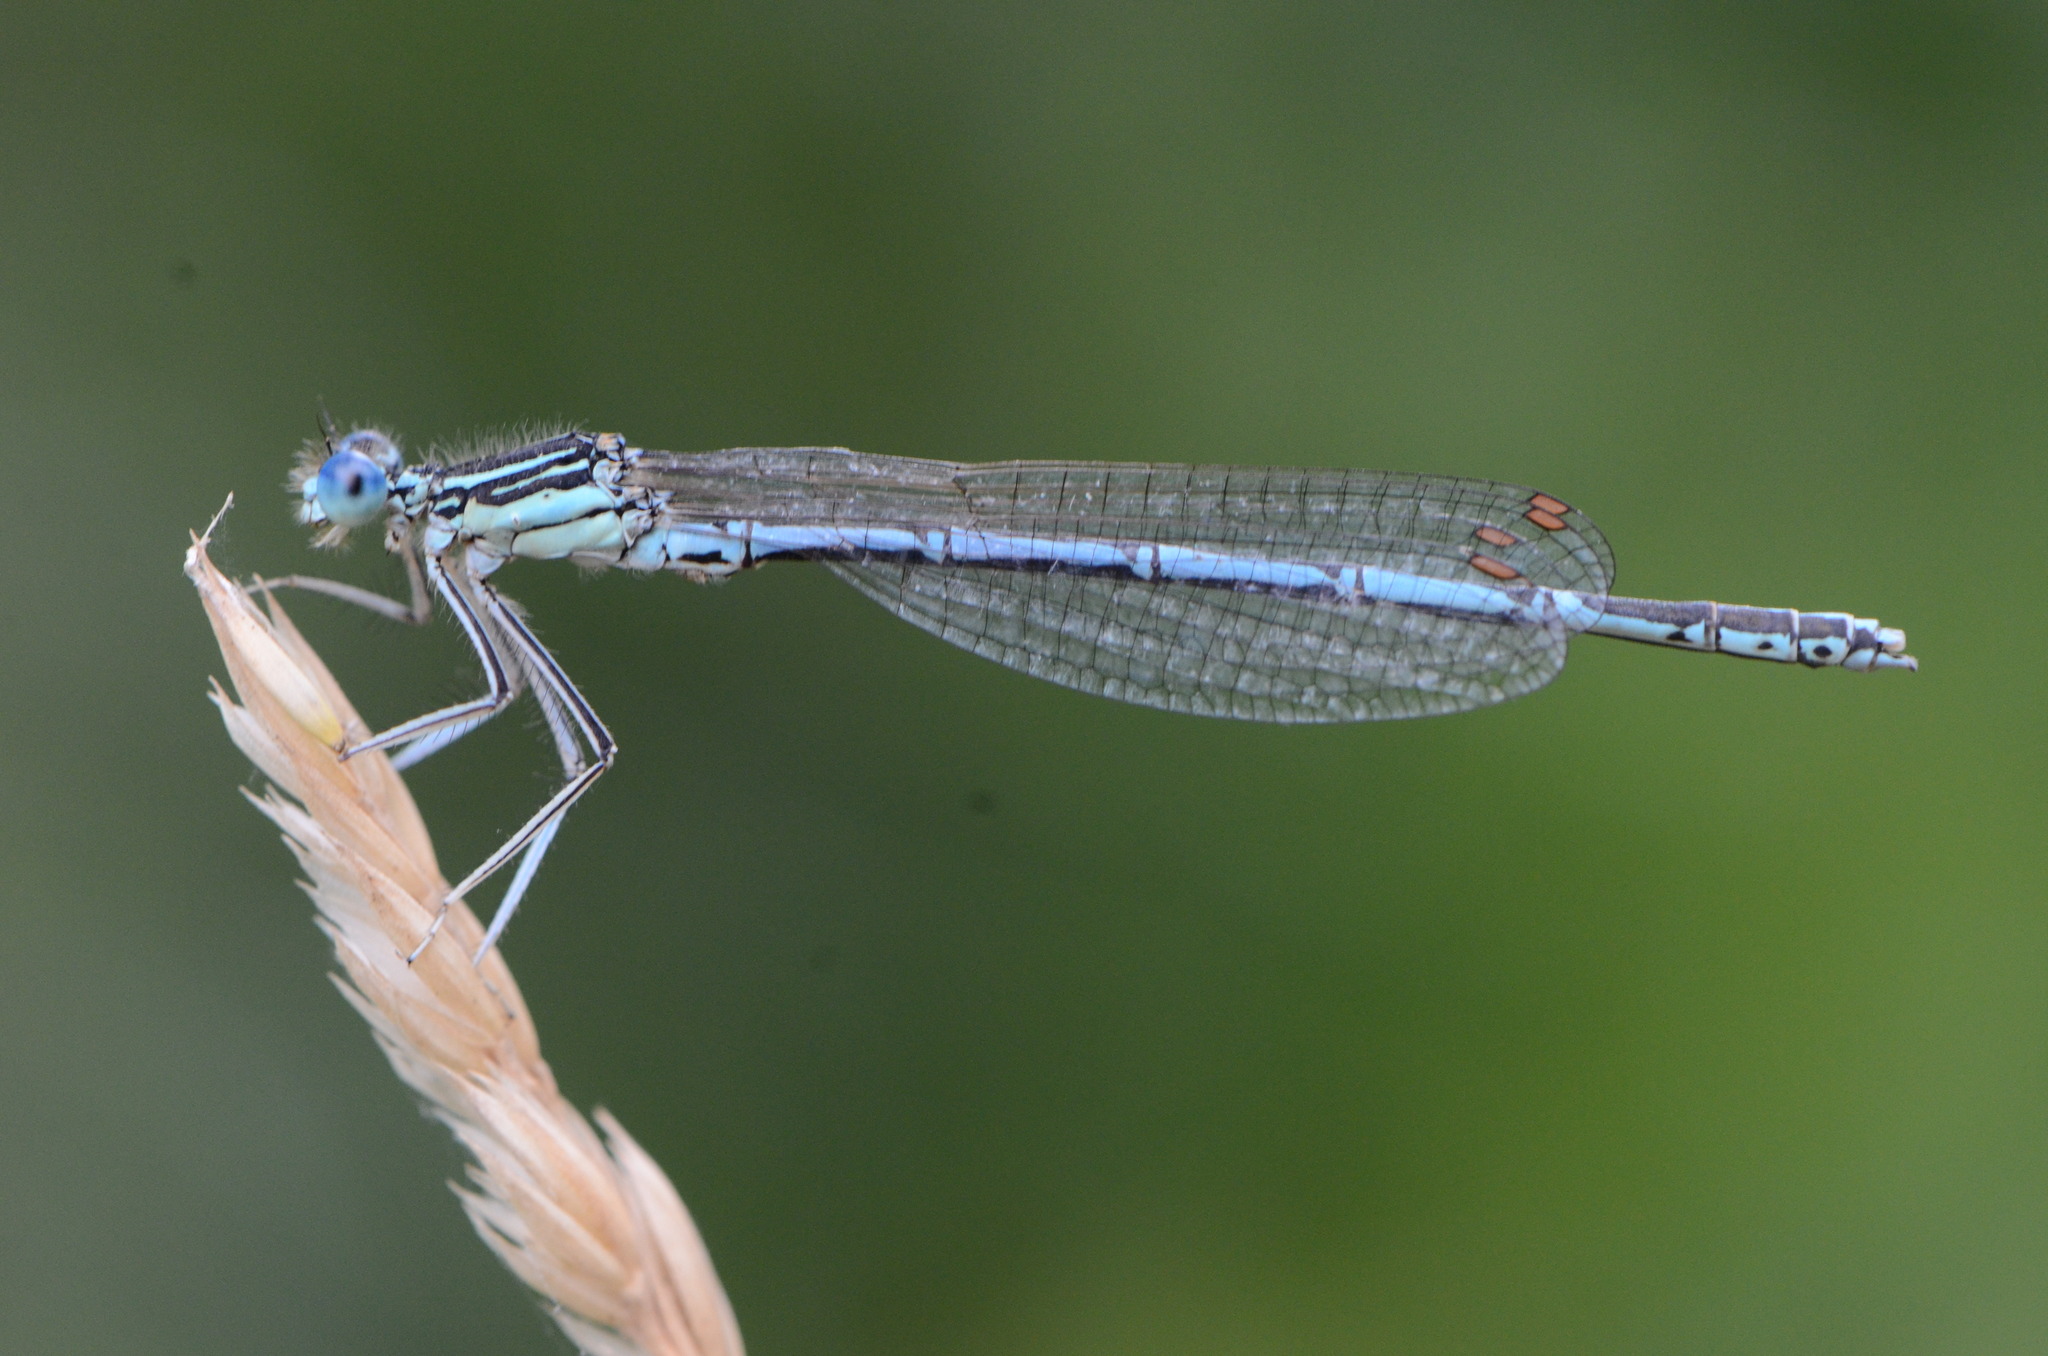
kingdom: Animalia
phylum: Arthropoda
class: Insecta
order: Odonata
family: Platycnemididae
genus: Platycnemis
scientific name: Platycnemis pennipes
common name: White-legged damselfly
